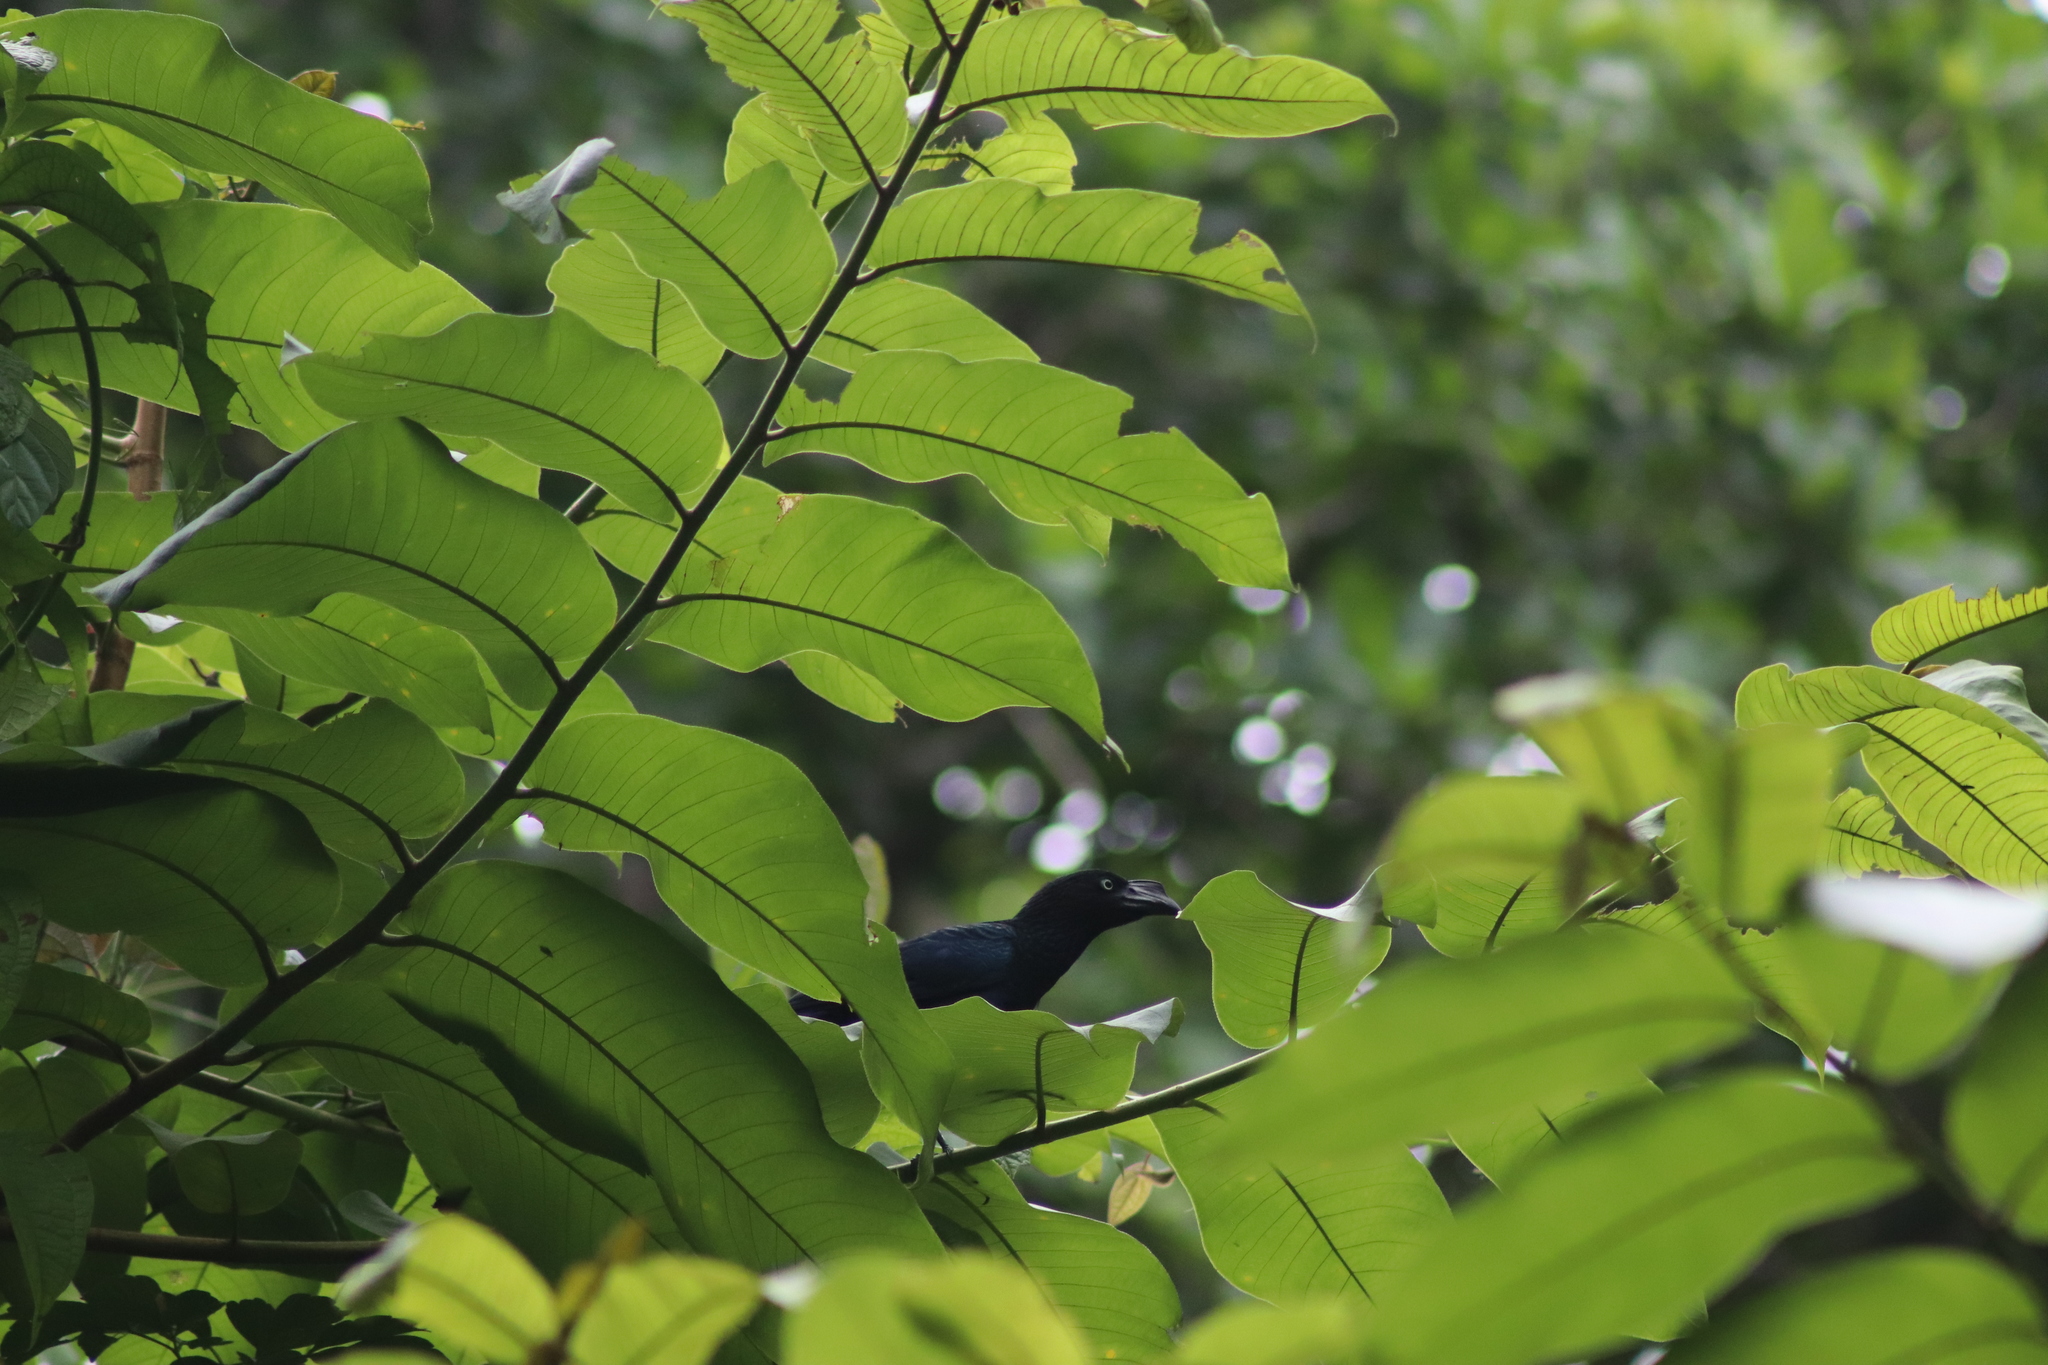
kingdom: Animalia
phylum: Chordata
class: Aves
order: Cuculiformes
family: Cuculidae
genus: Crotophaga
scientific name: Crotophaga major
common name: Greater ani
